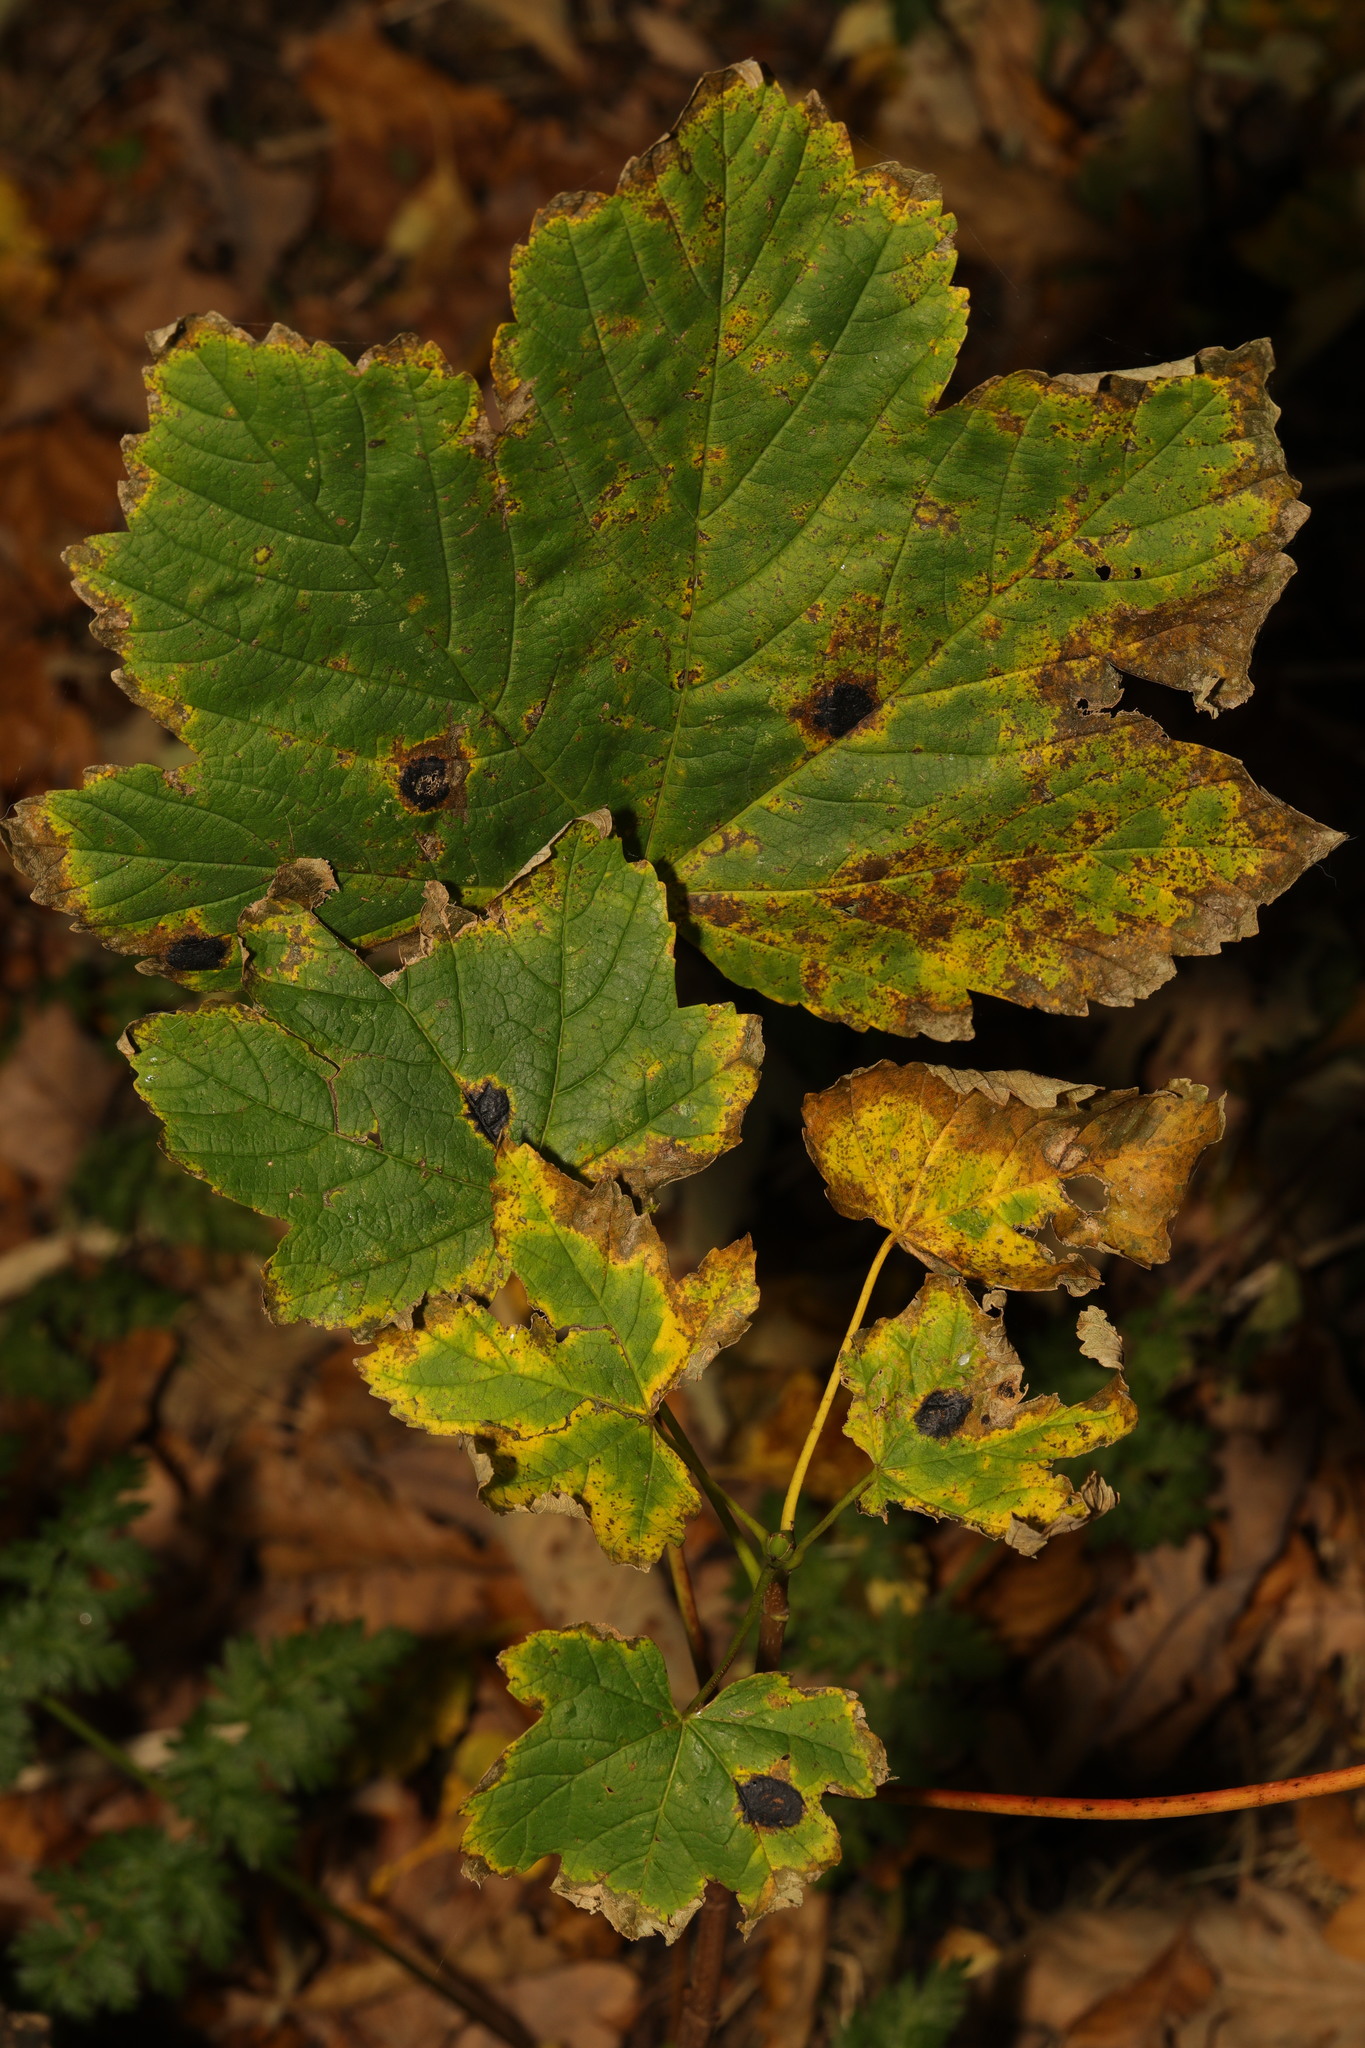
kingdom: Plantae
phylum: Tracheophyta
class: Magnoliopsida
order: Sapindales
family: Sapindaceae
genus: Acer
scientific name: Acer pseudoplatanus
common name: Sycamore
